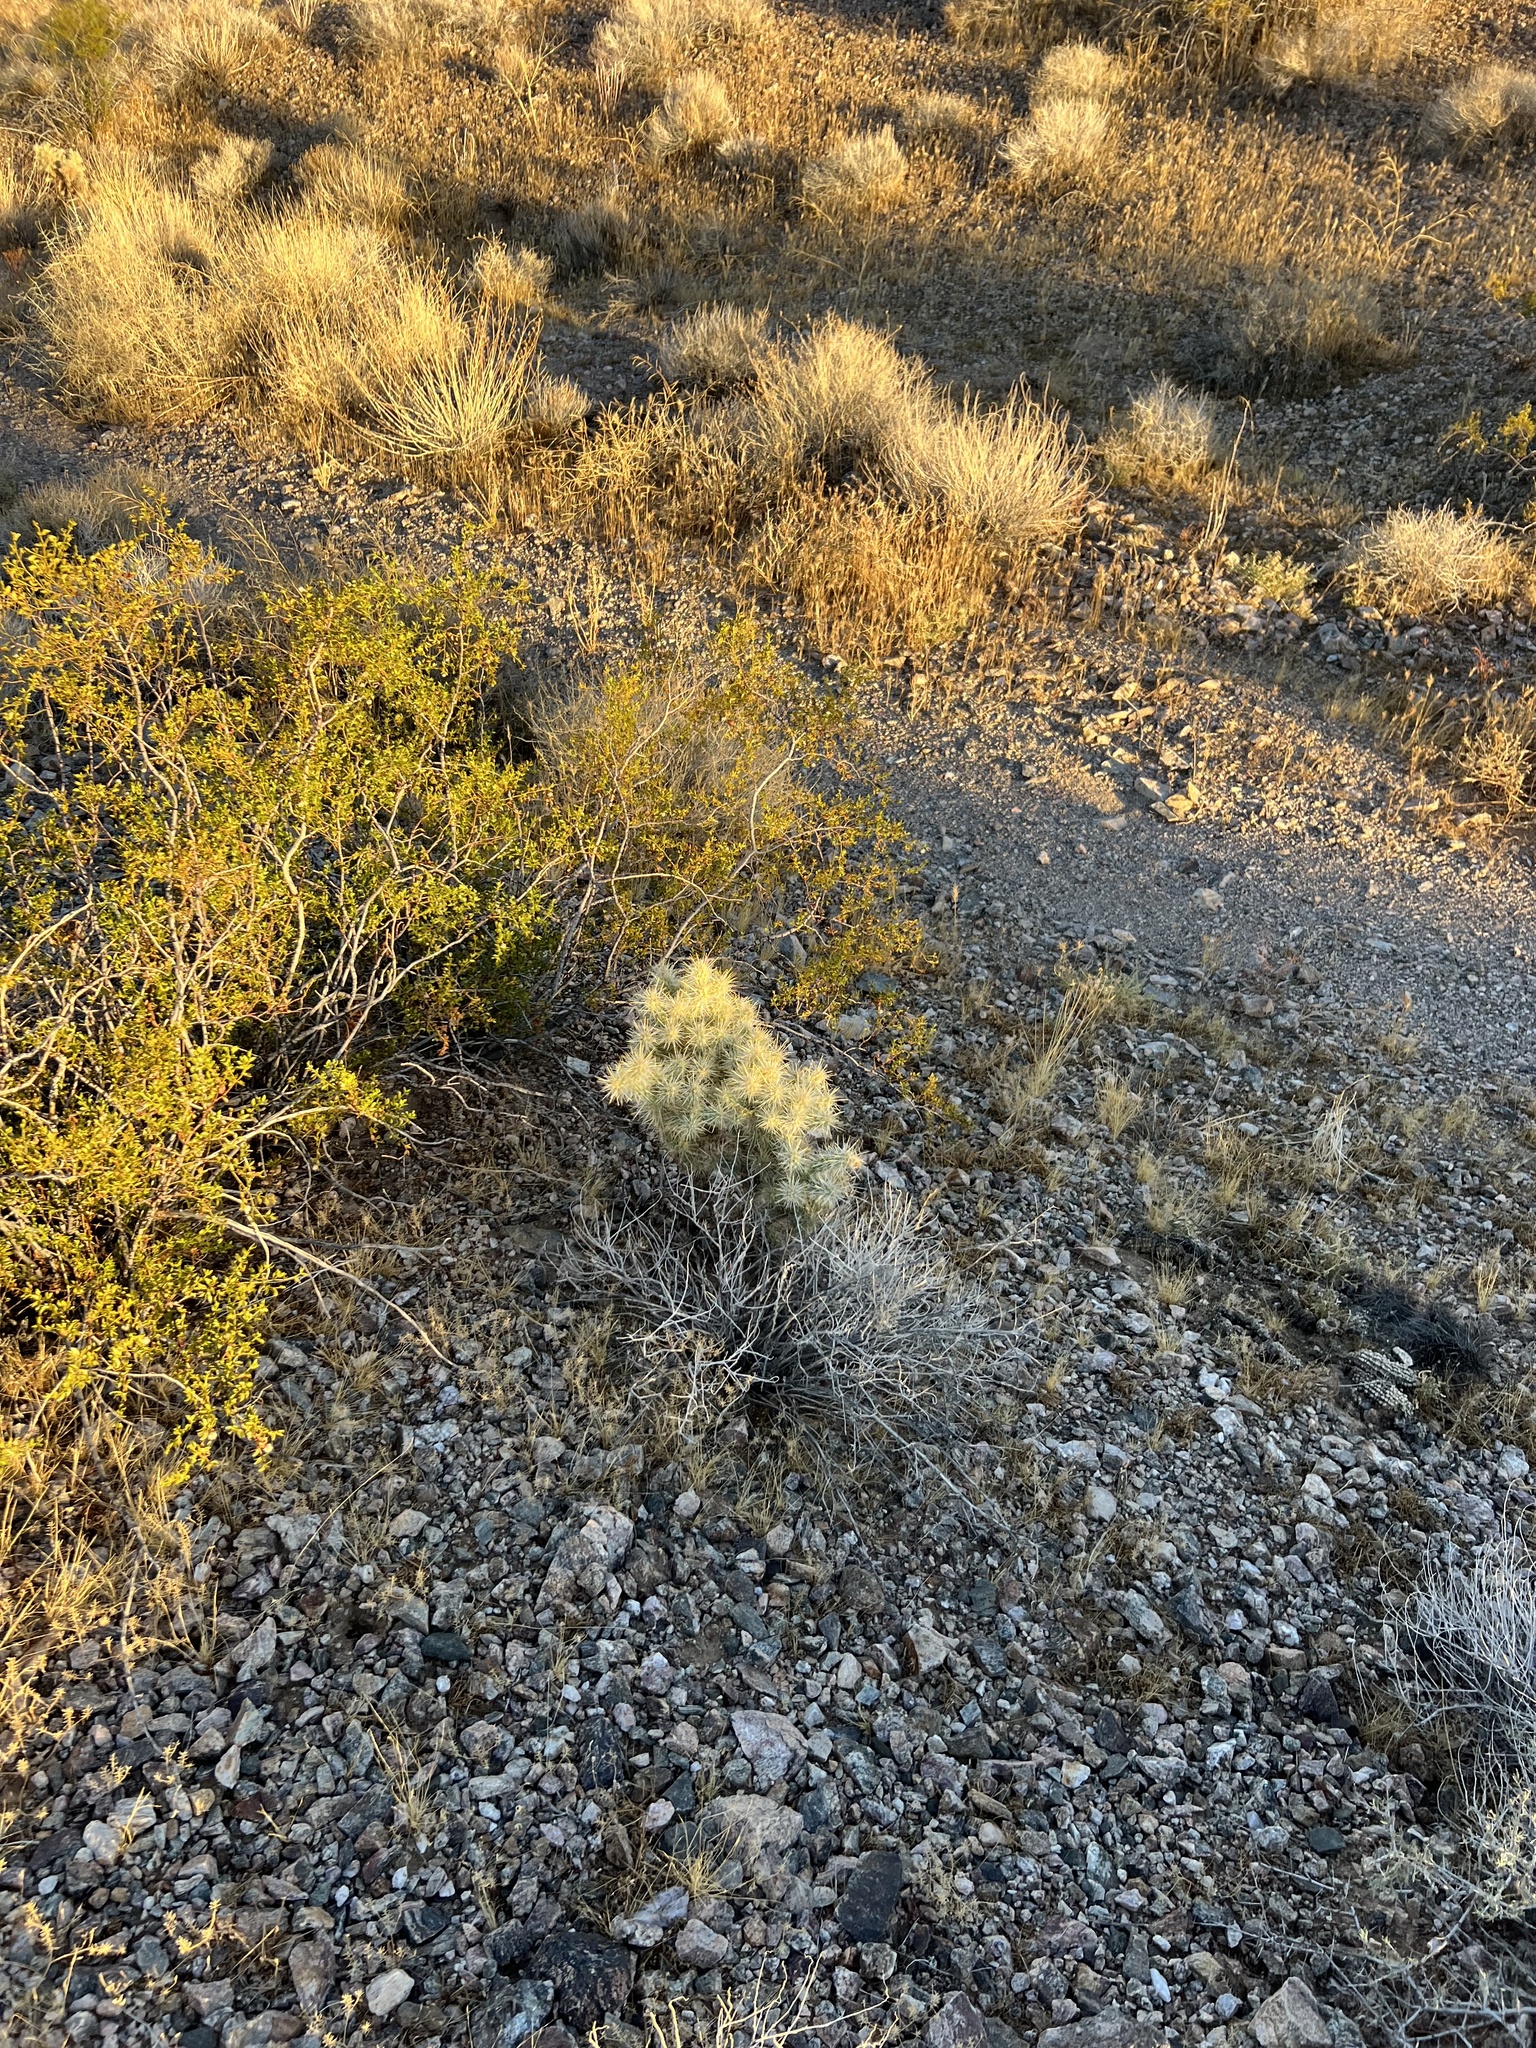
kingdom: Plantae
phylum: Tracheophyta
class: Magnoliopsida
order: Caryophyllales
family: Cactaceae
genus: Cylindropuntia
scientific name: Cylindropuntia echinocarpa
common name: Ground cholla
